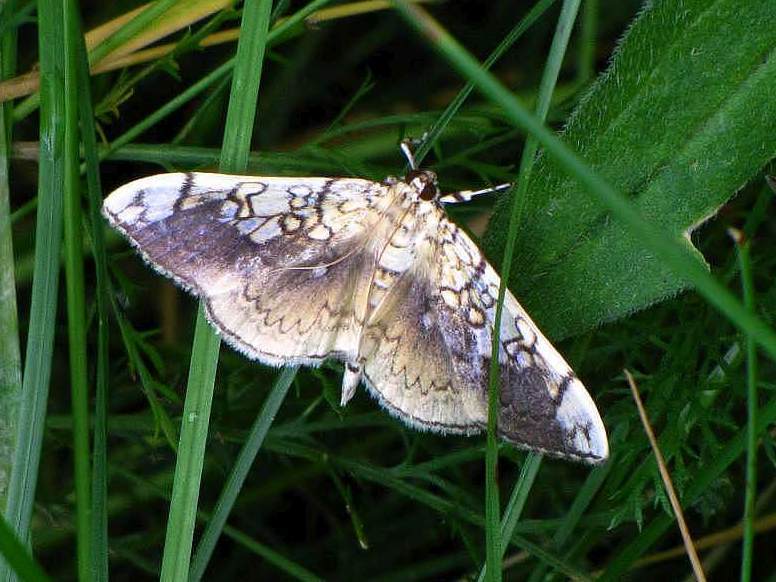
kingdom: Animalia
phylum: Arthropoda
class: Insecta
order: Lepidoptera
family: Crambidae
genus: Pantographa
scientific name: Pantographa limata
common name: Basswood leafroller moth
